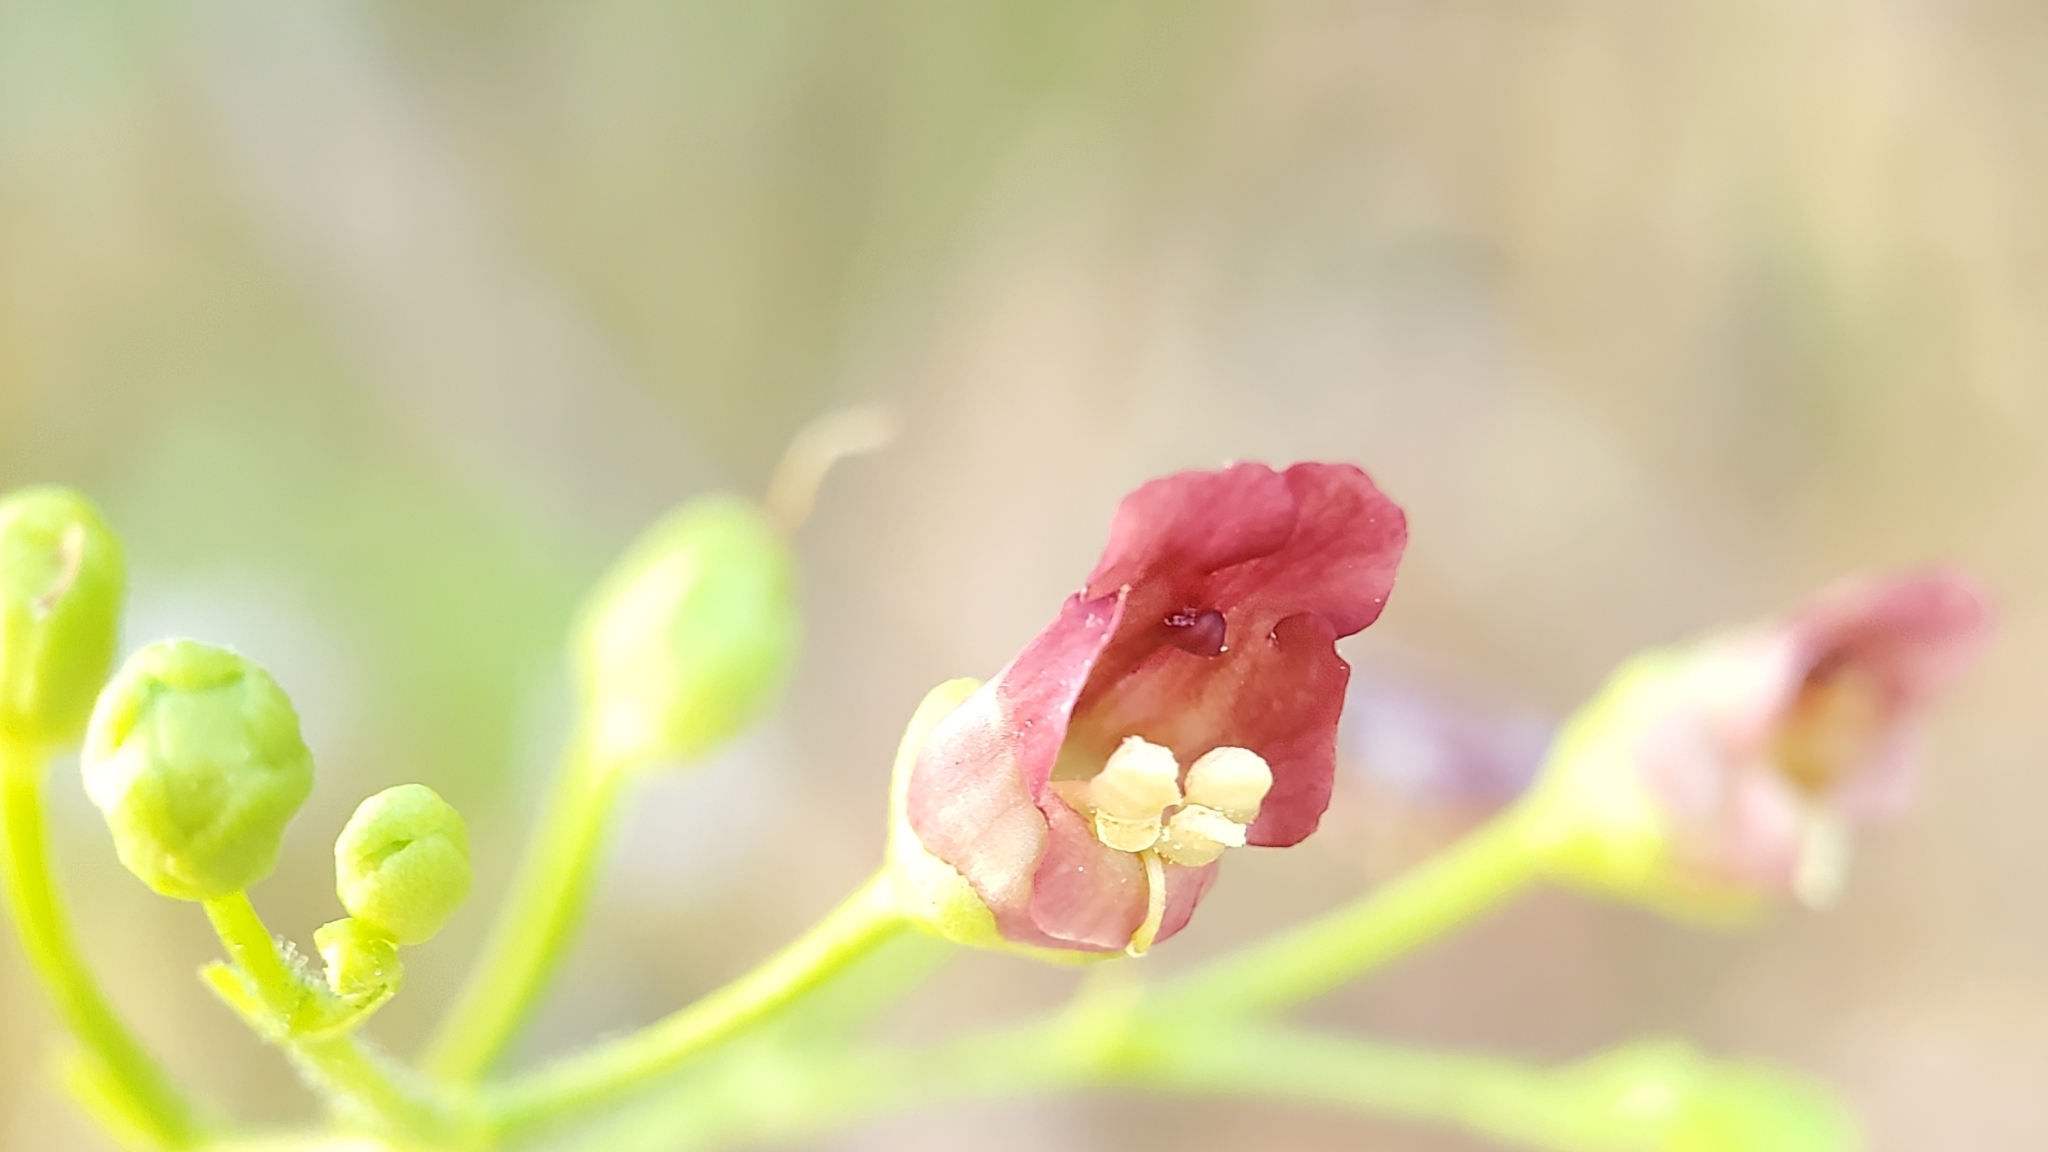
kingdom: Plantae
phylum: Tracheophyta
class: Magnoliopsida
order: Lamiales
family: Scrophulariaceae
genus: Scrophularia
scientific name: Scrophularia californica
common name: California figwort
